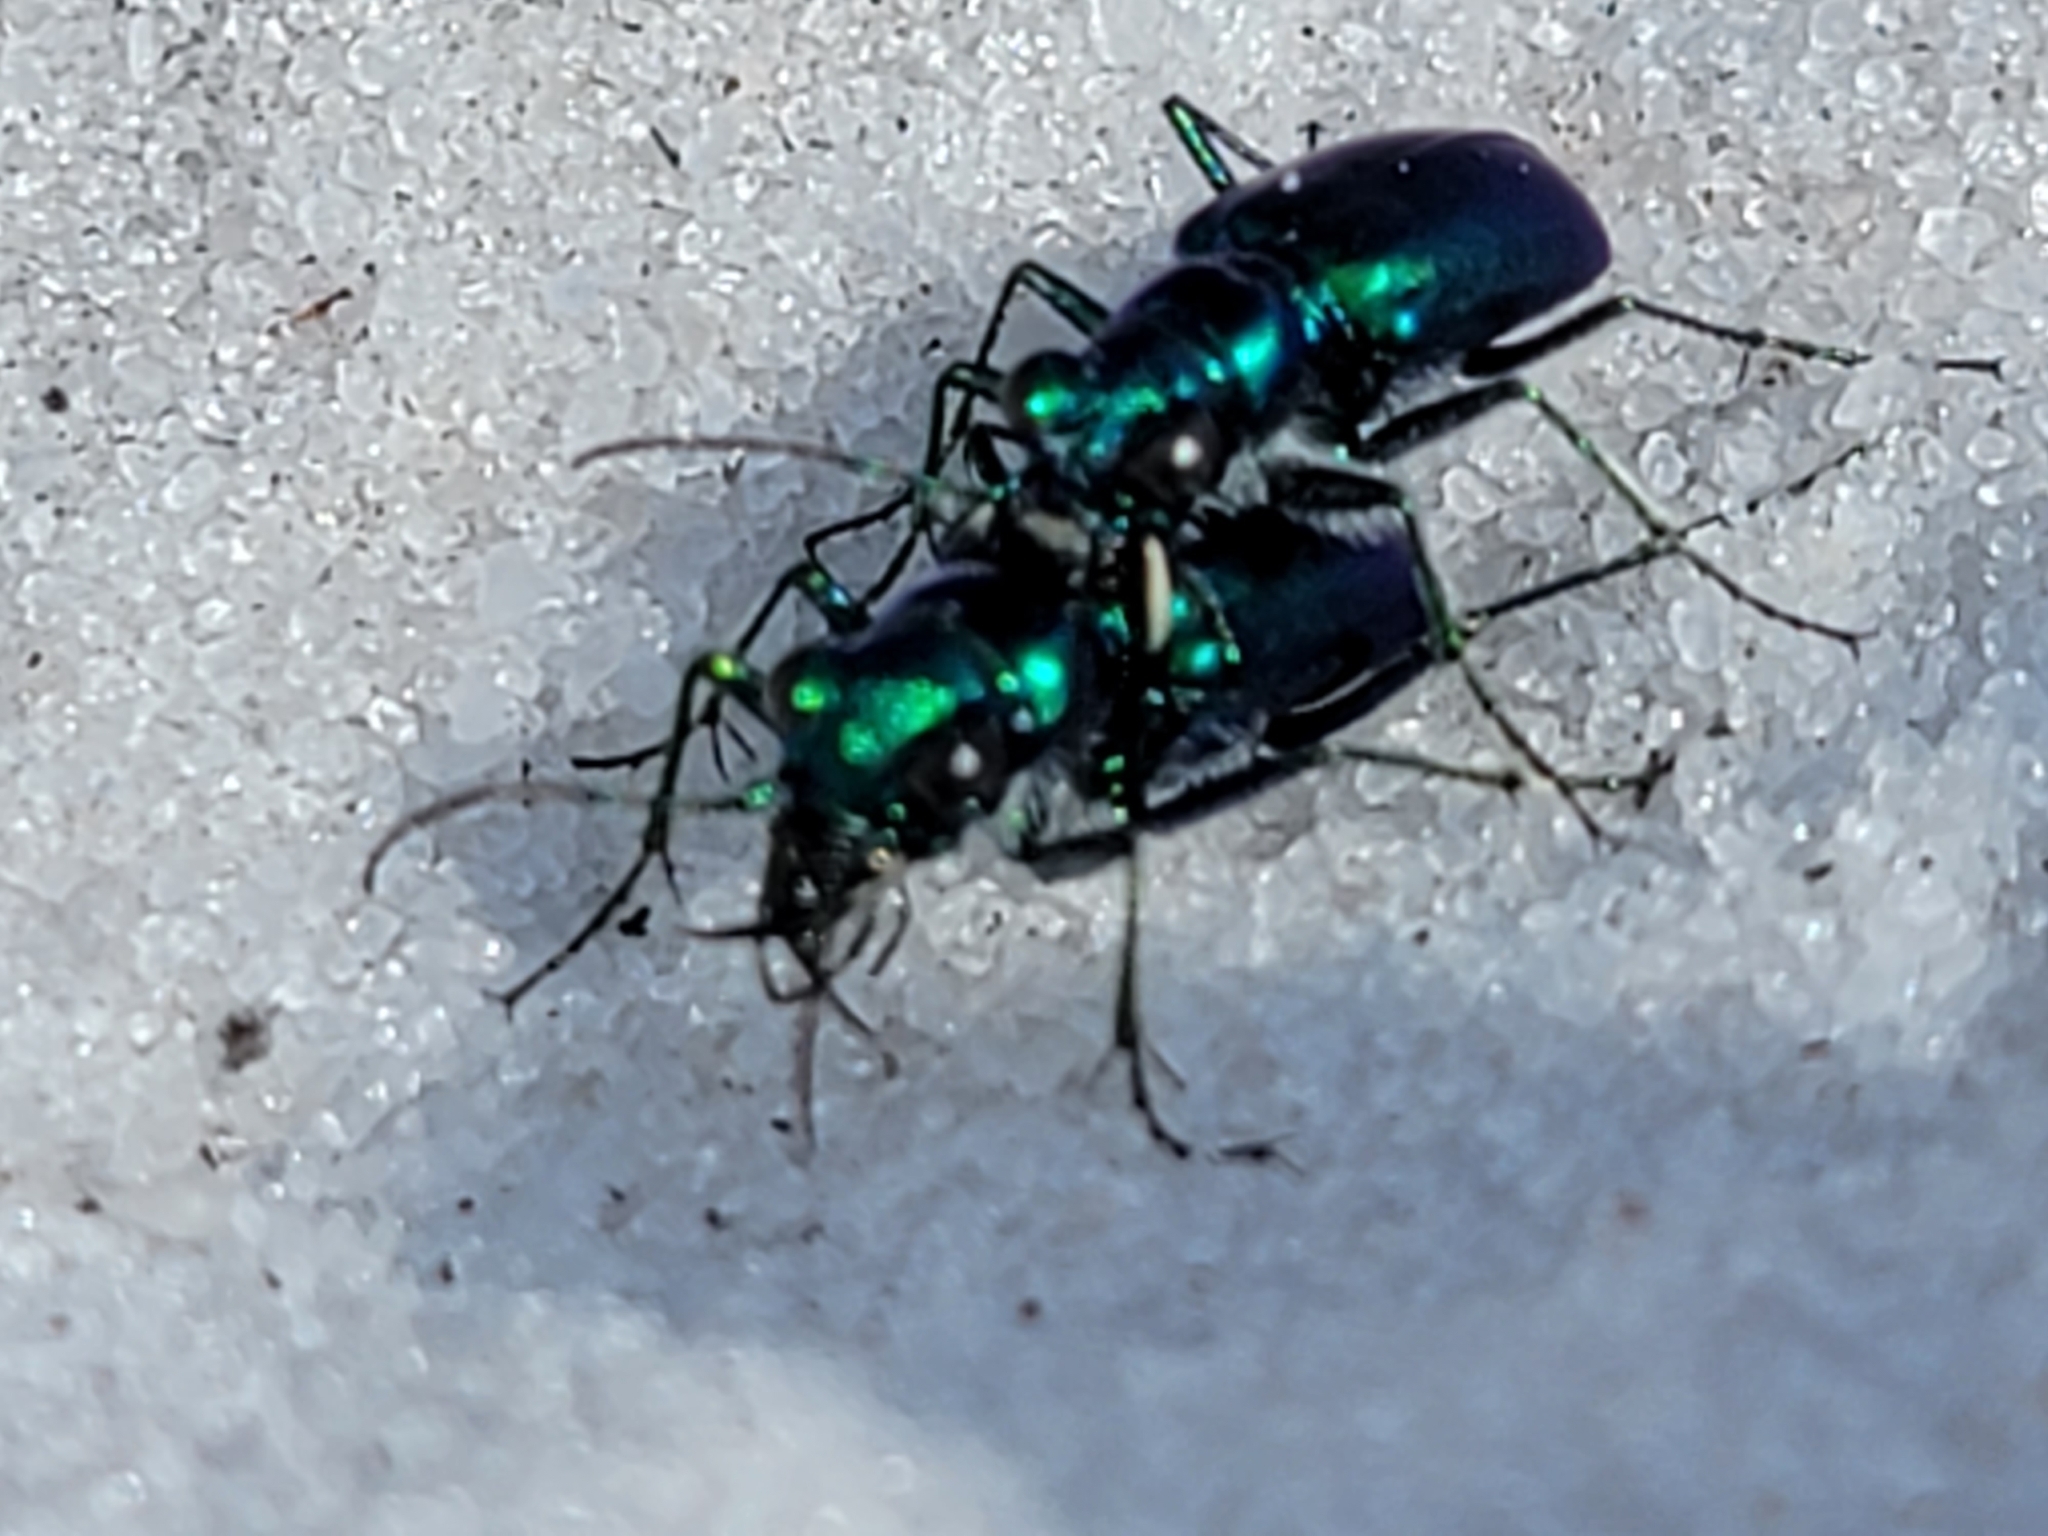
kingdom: Animalia
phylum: Arthropoda
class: Insecta
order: Coleoptera
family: Carabidae
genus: Cicindela
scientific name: Cicindela scutellaris
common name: Festive tiger beetle
